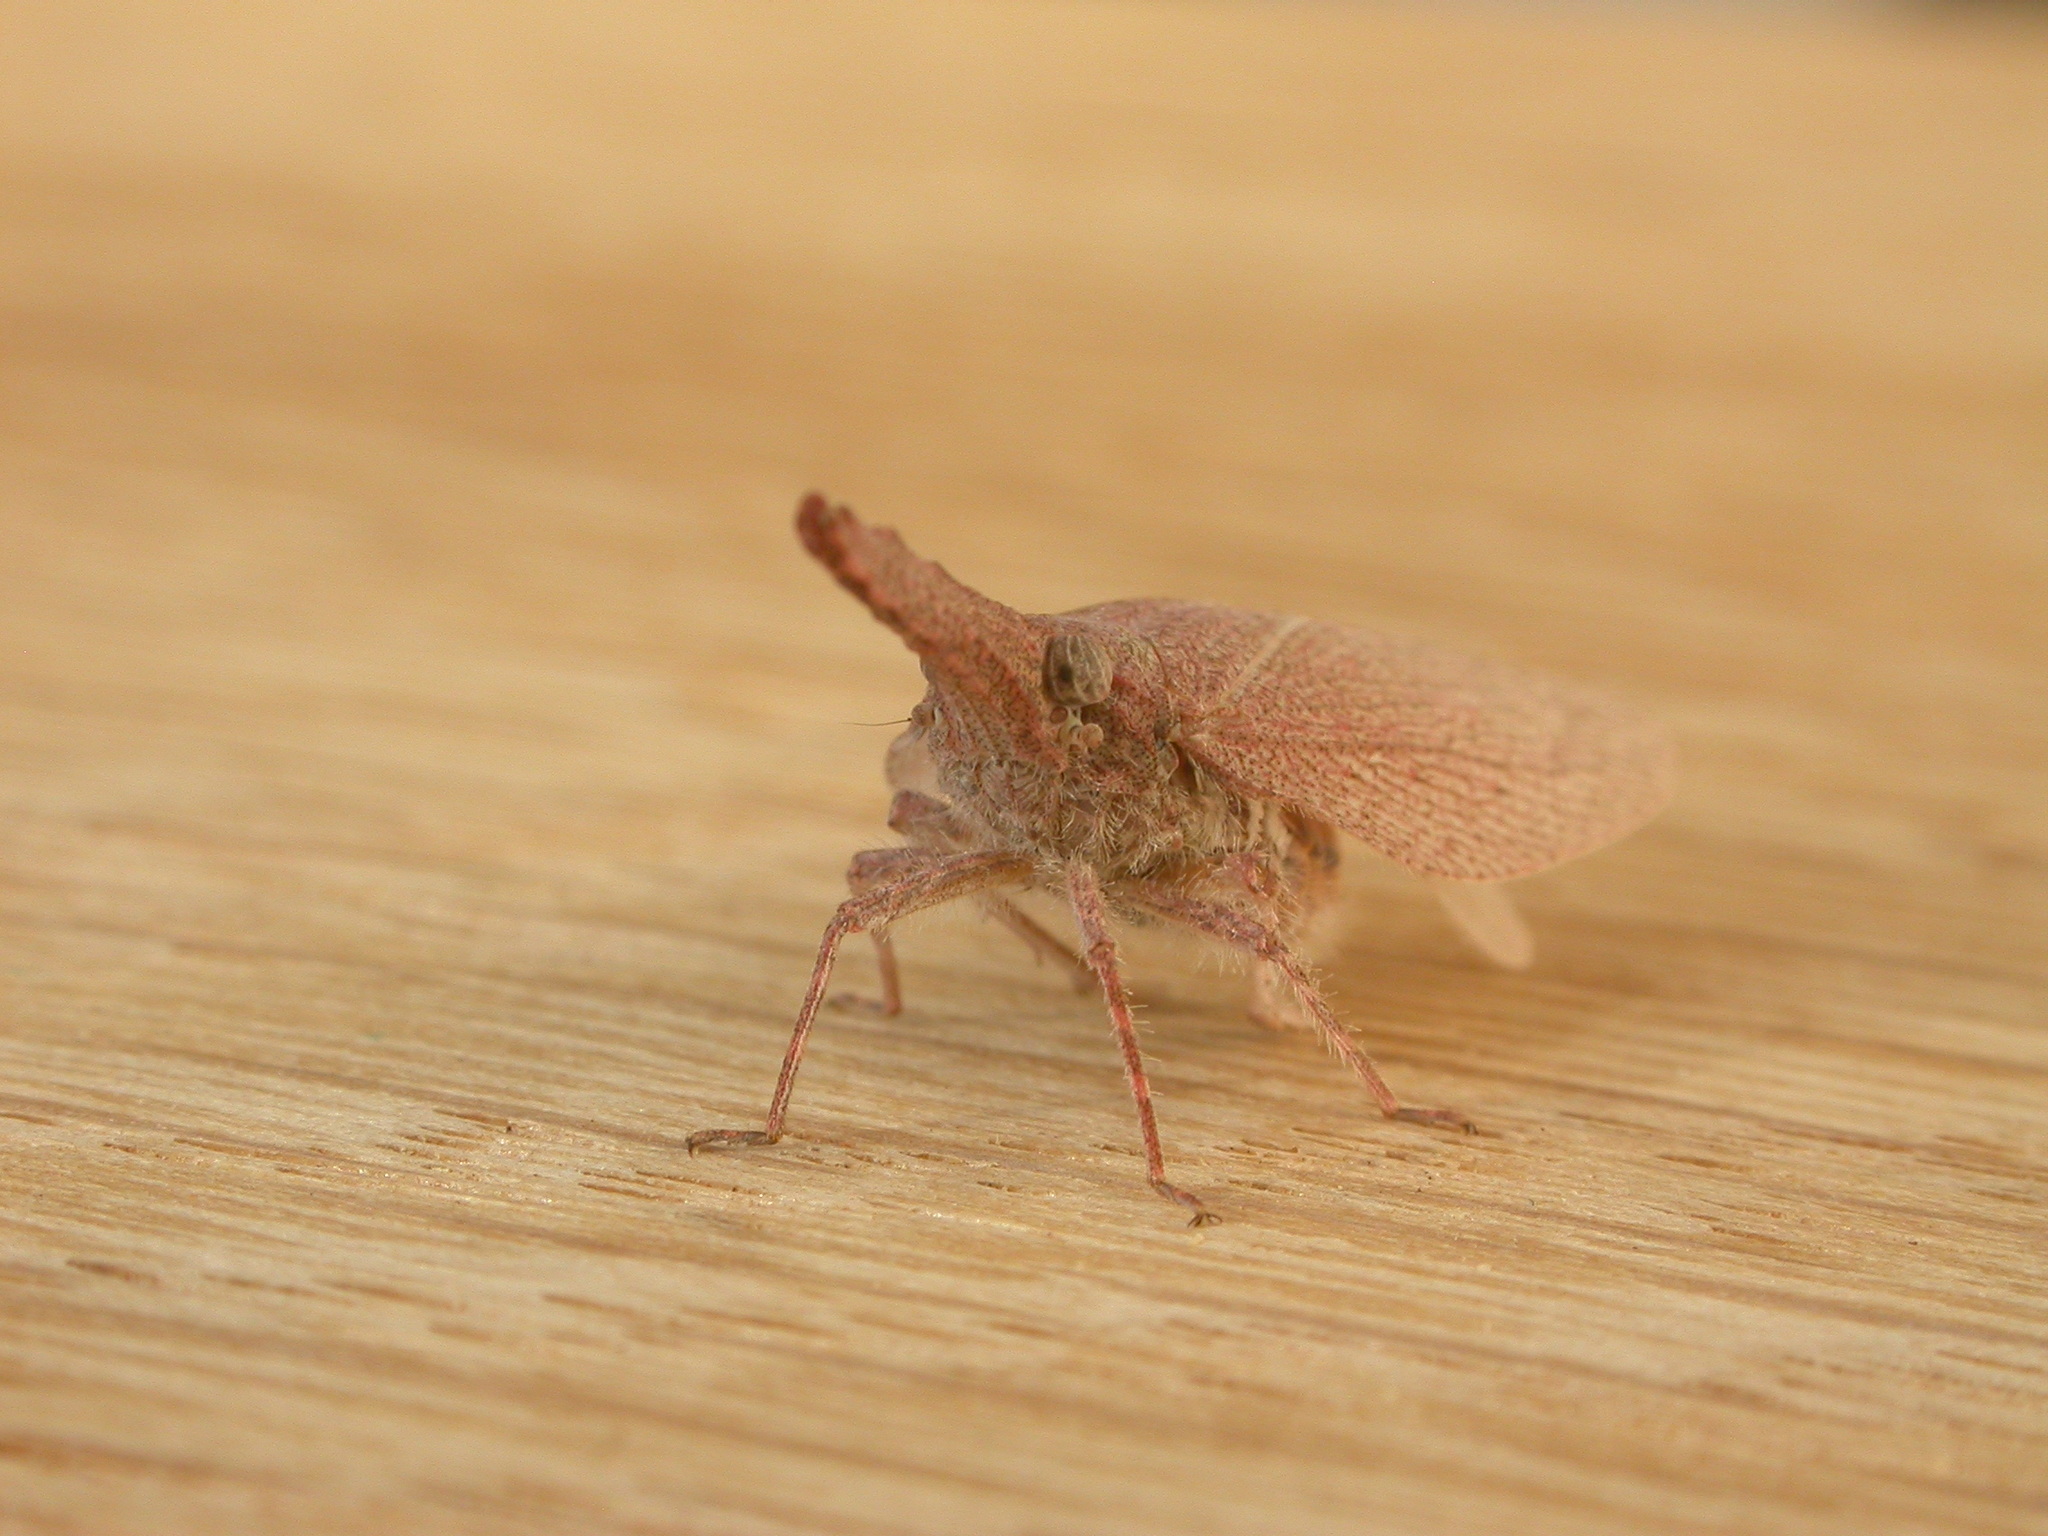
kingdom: Animalia
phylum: Arthropoda
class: Insecta
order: Hemiptera
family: Fulgoridae
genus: Rentinus
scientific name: Rentinus dilatatus
